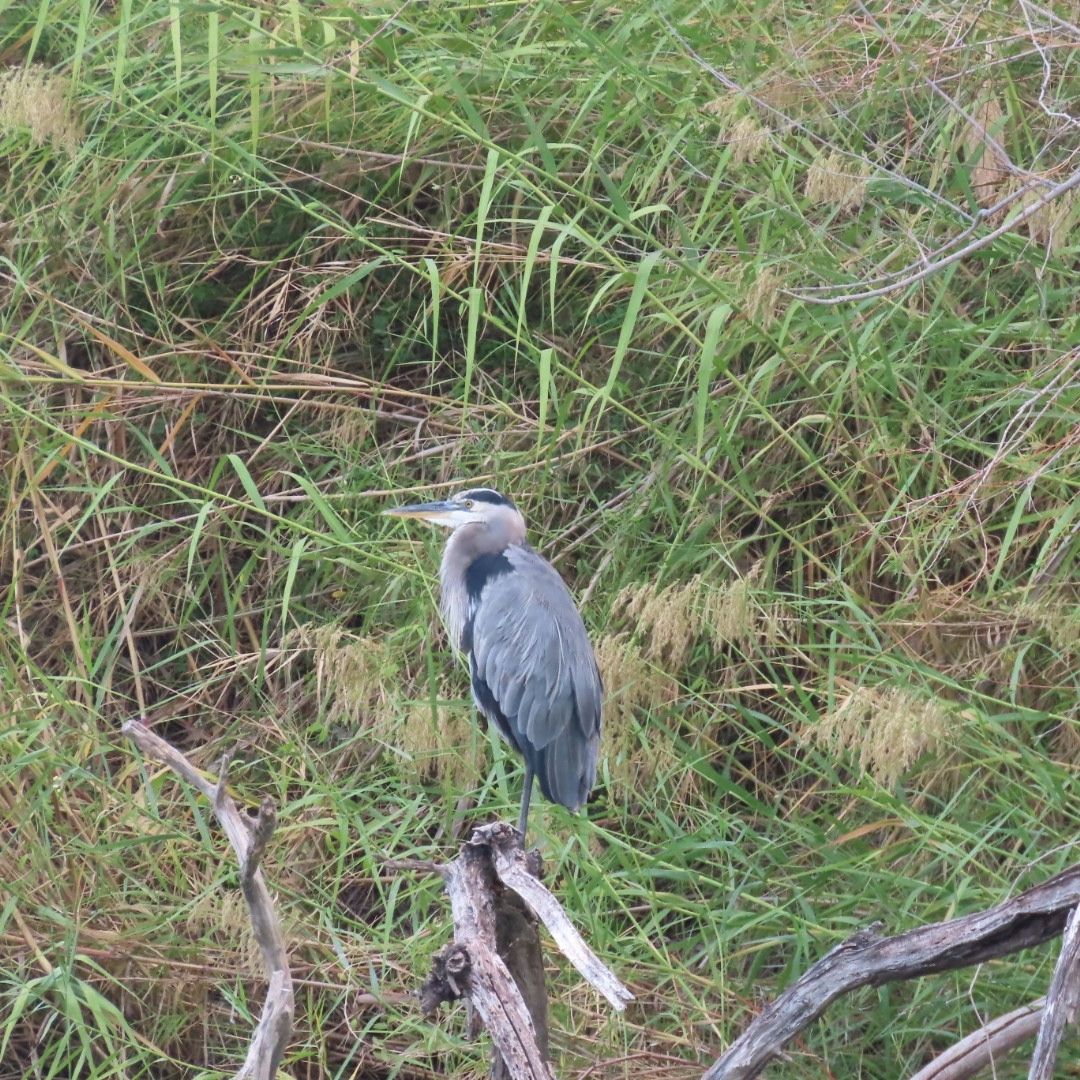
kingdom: Animalia
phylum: Chordata
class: Aves
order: Pelecaniformes
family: Ardeidae
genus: Ardea
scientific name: Ardea herodias
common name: Great blue heron
